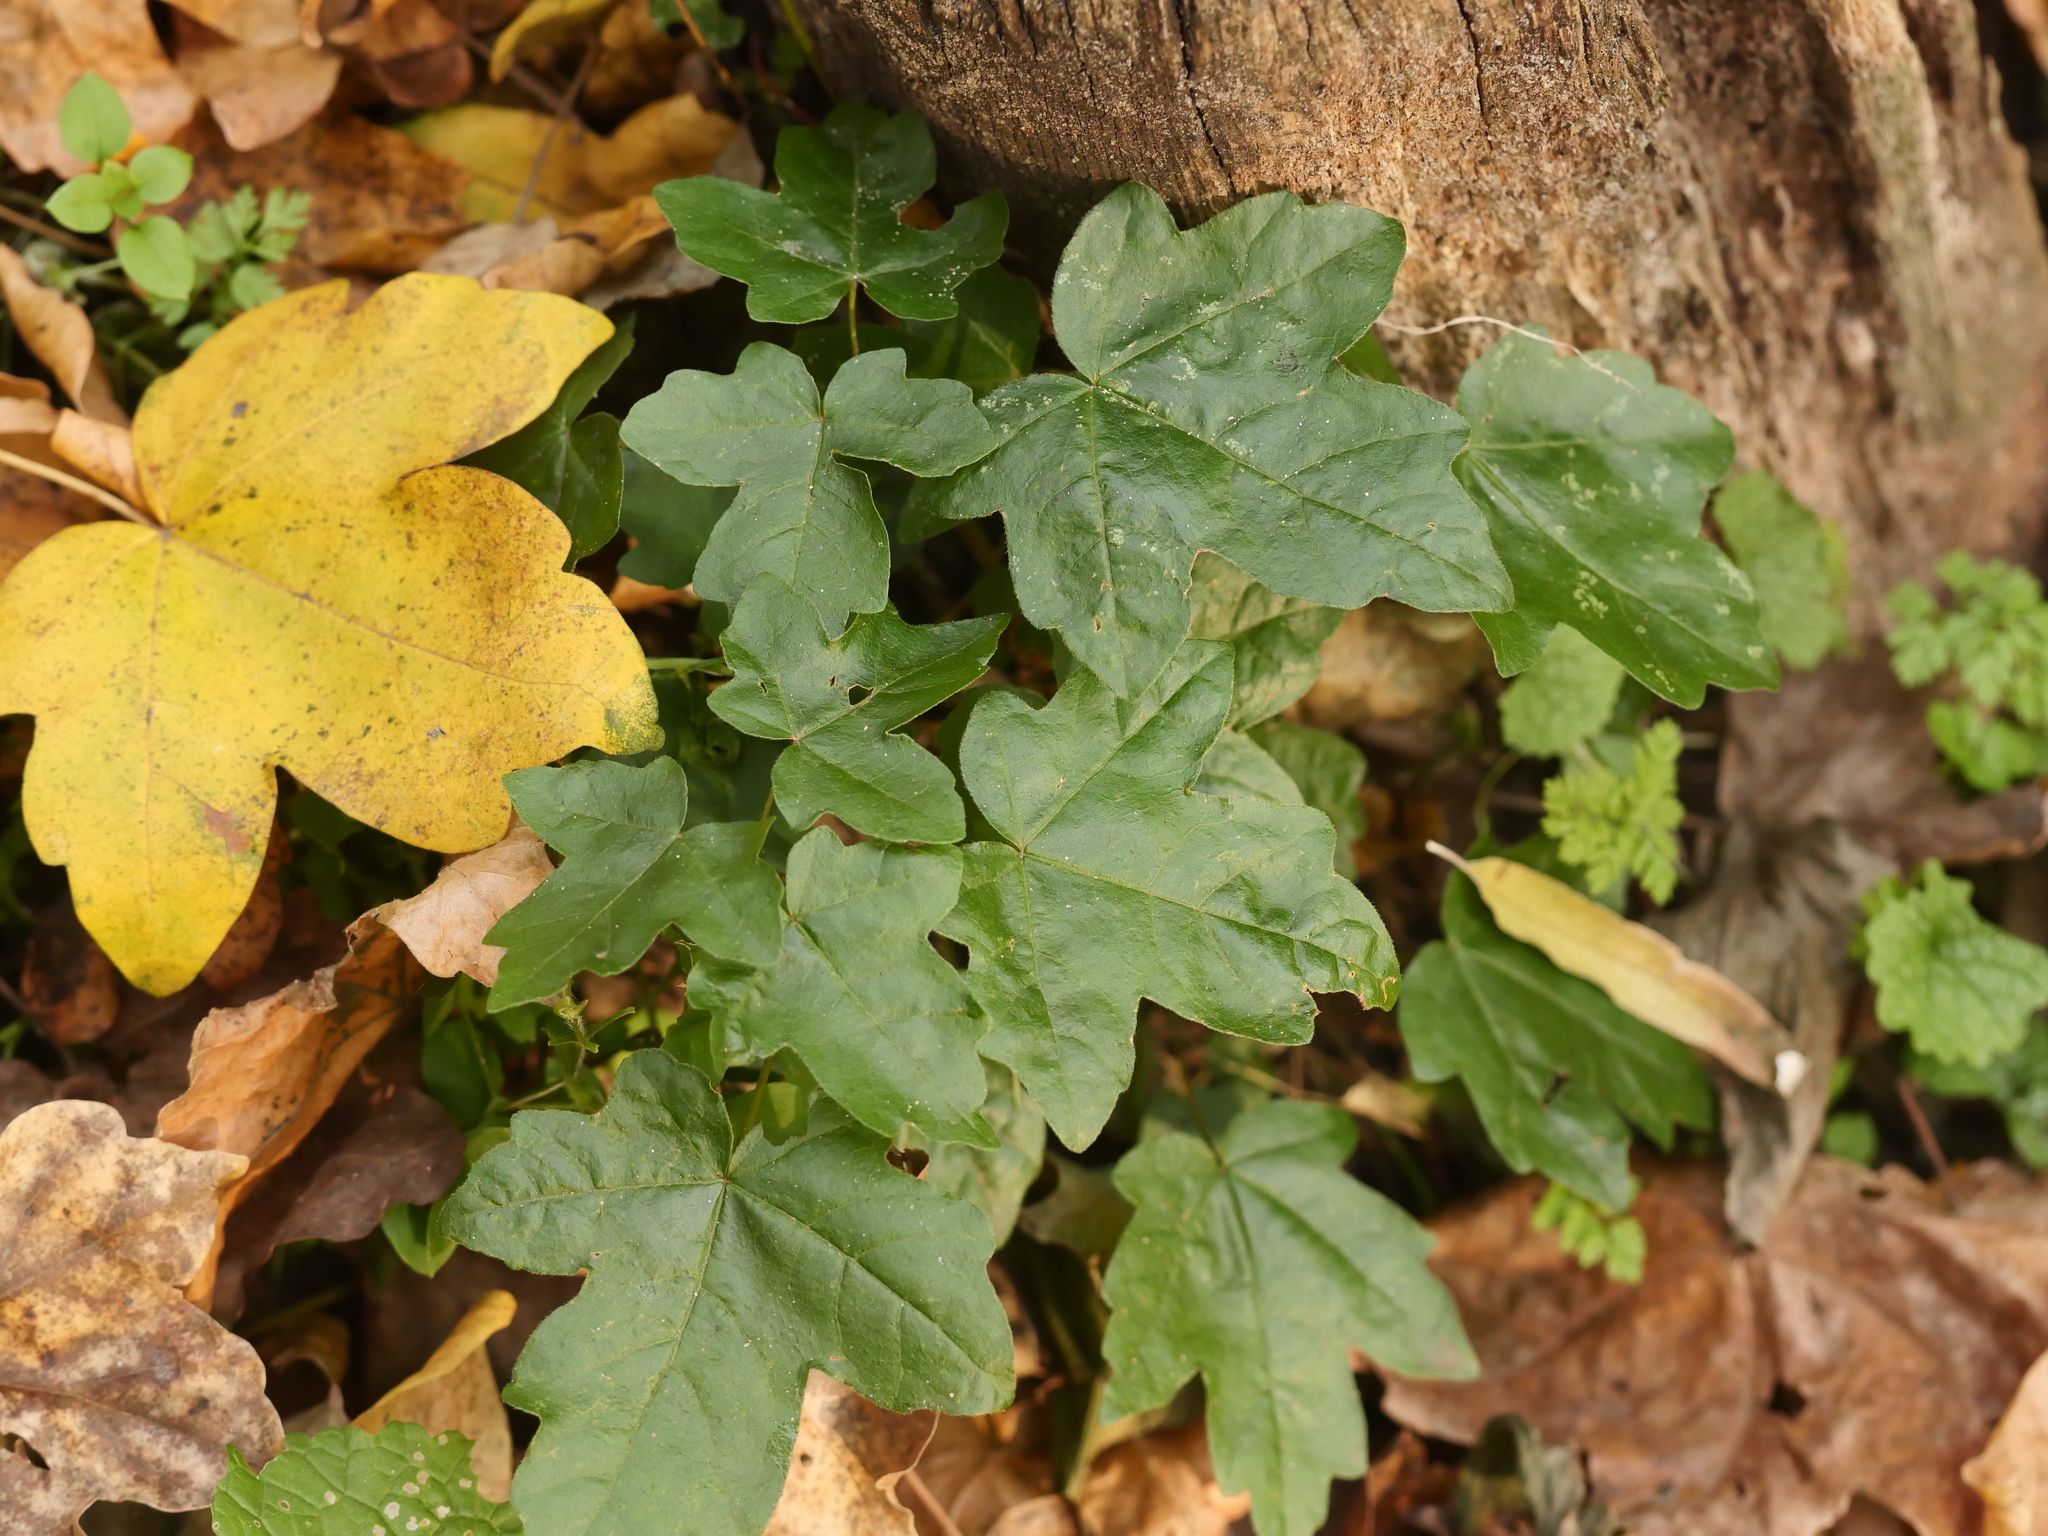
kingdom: Plantae
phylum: Tracheophyta
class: Magnoliopsida
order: Sapindales
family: Sapindaceae
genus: Acer
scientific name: Acer campestre
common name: Field maple
